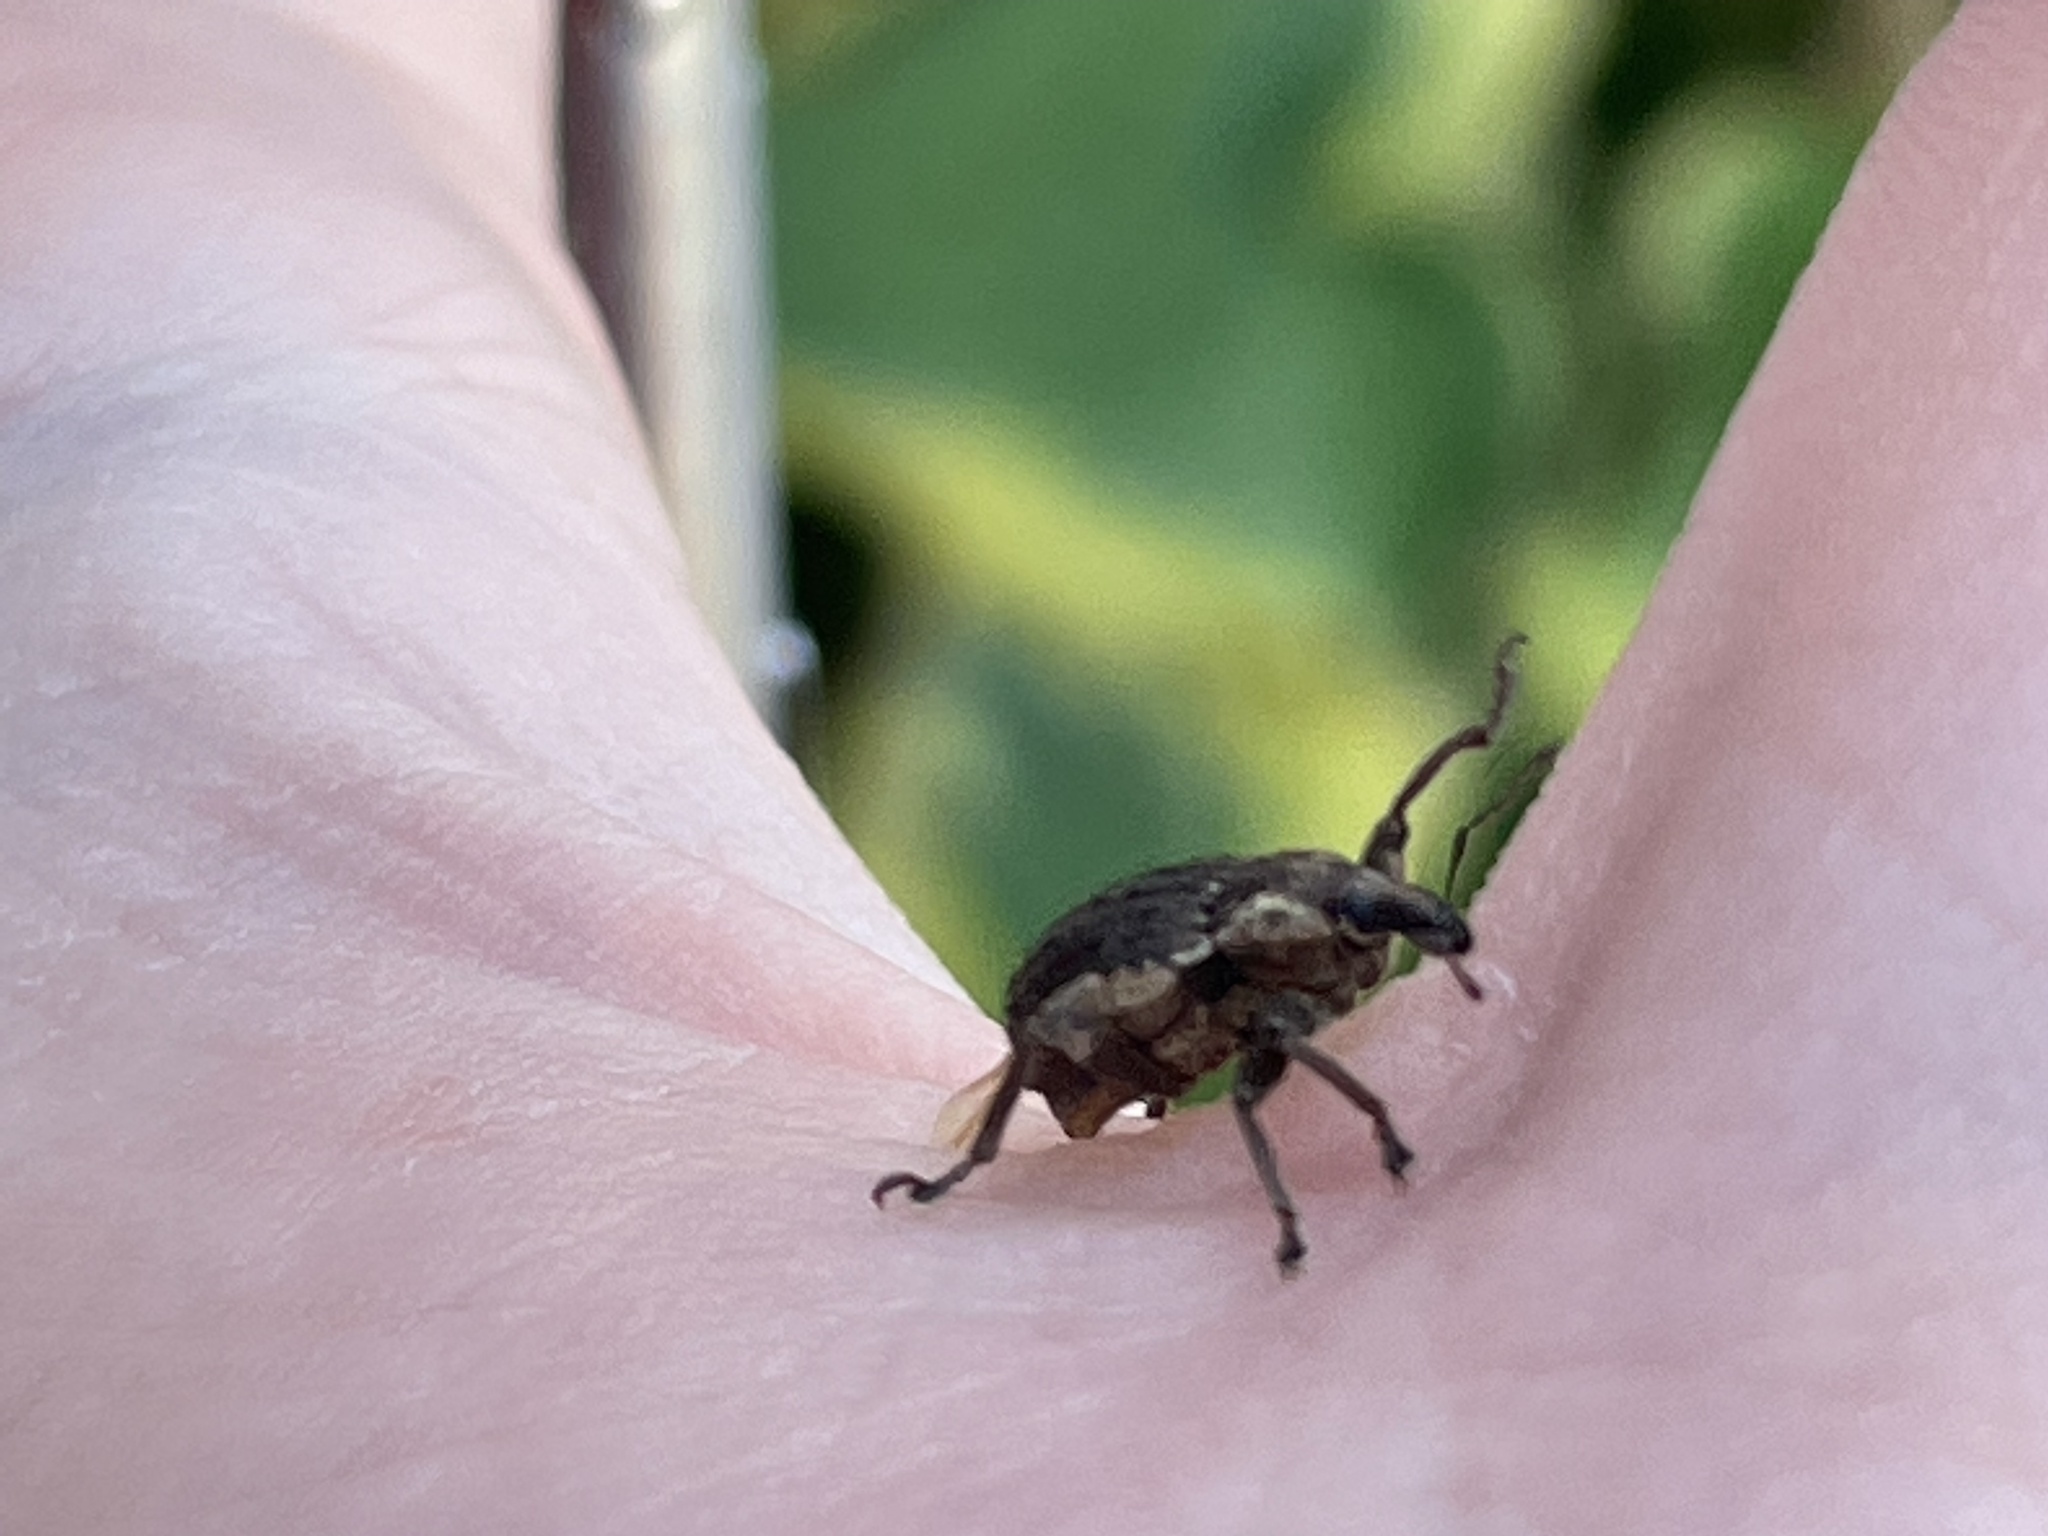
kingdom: Animalia
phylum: Arthropoda
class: Insecta
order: Coleoptera
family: Curculionidae
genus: Brachypera
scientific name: Brachypera zoilus
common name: Clover leaf weevil
